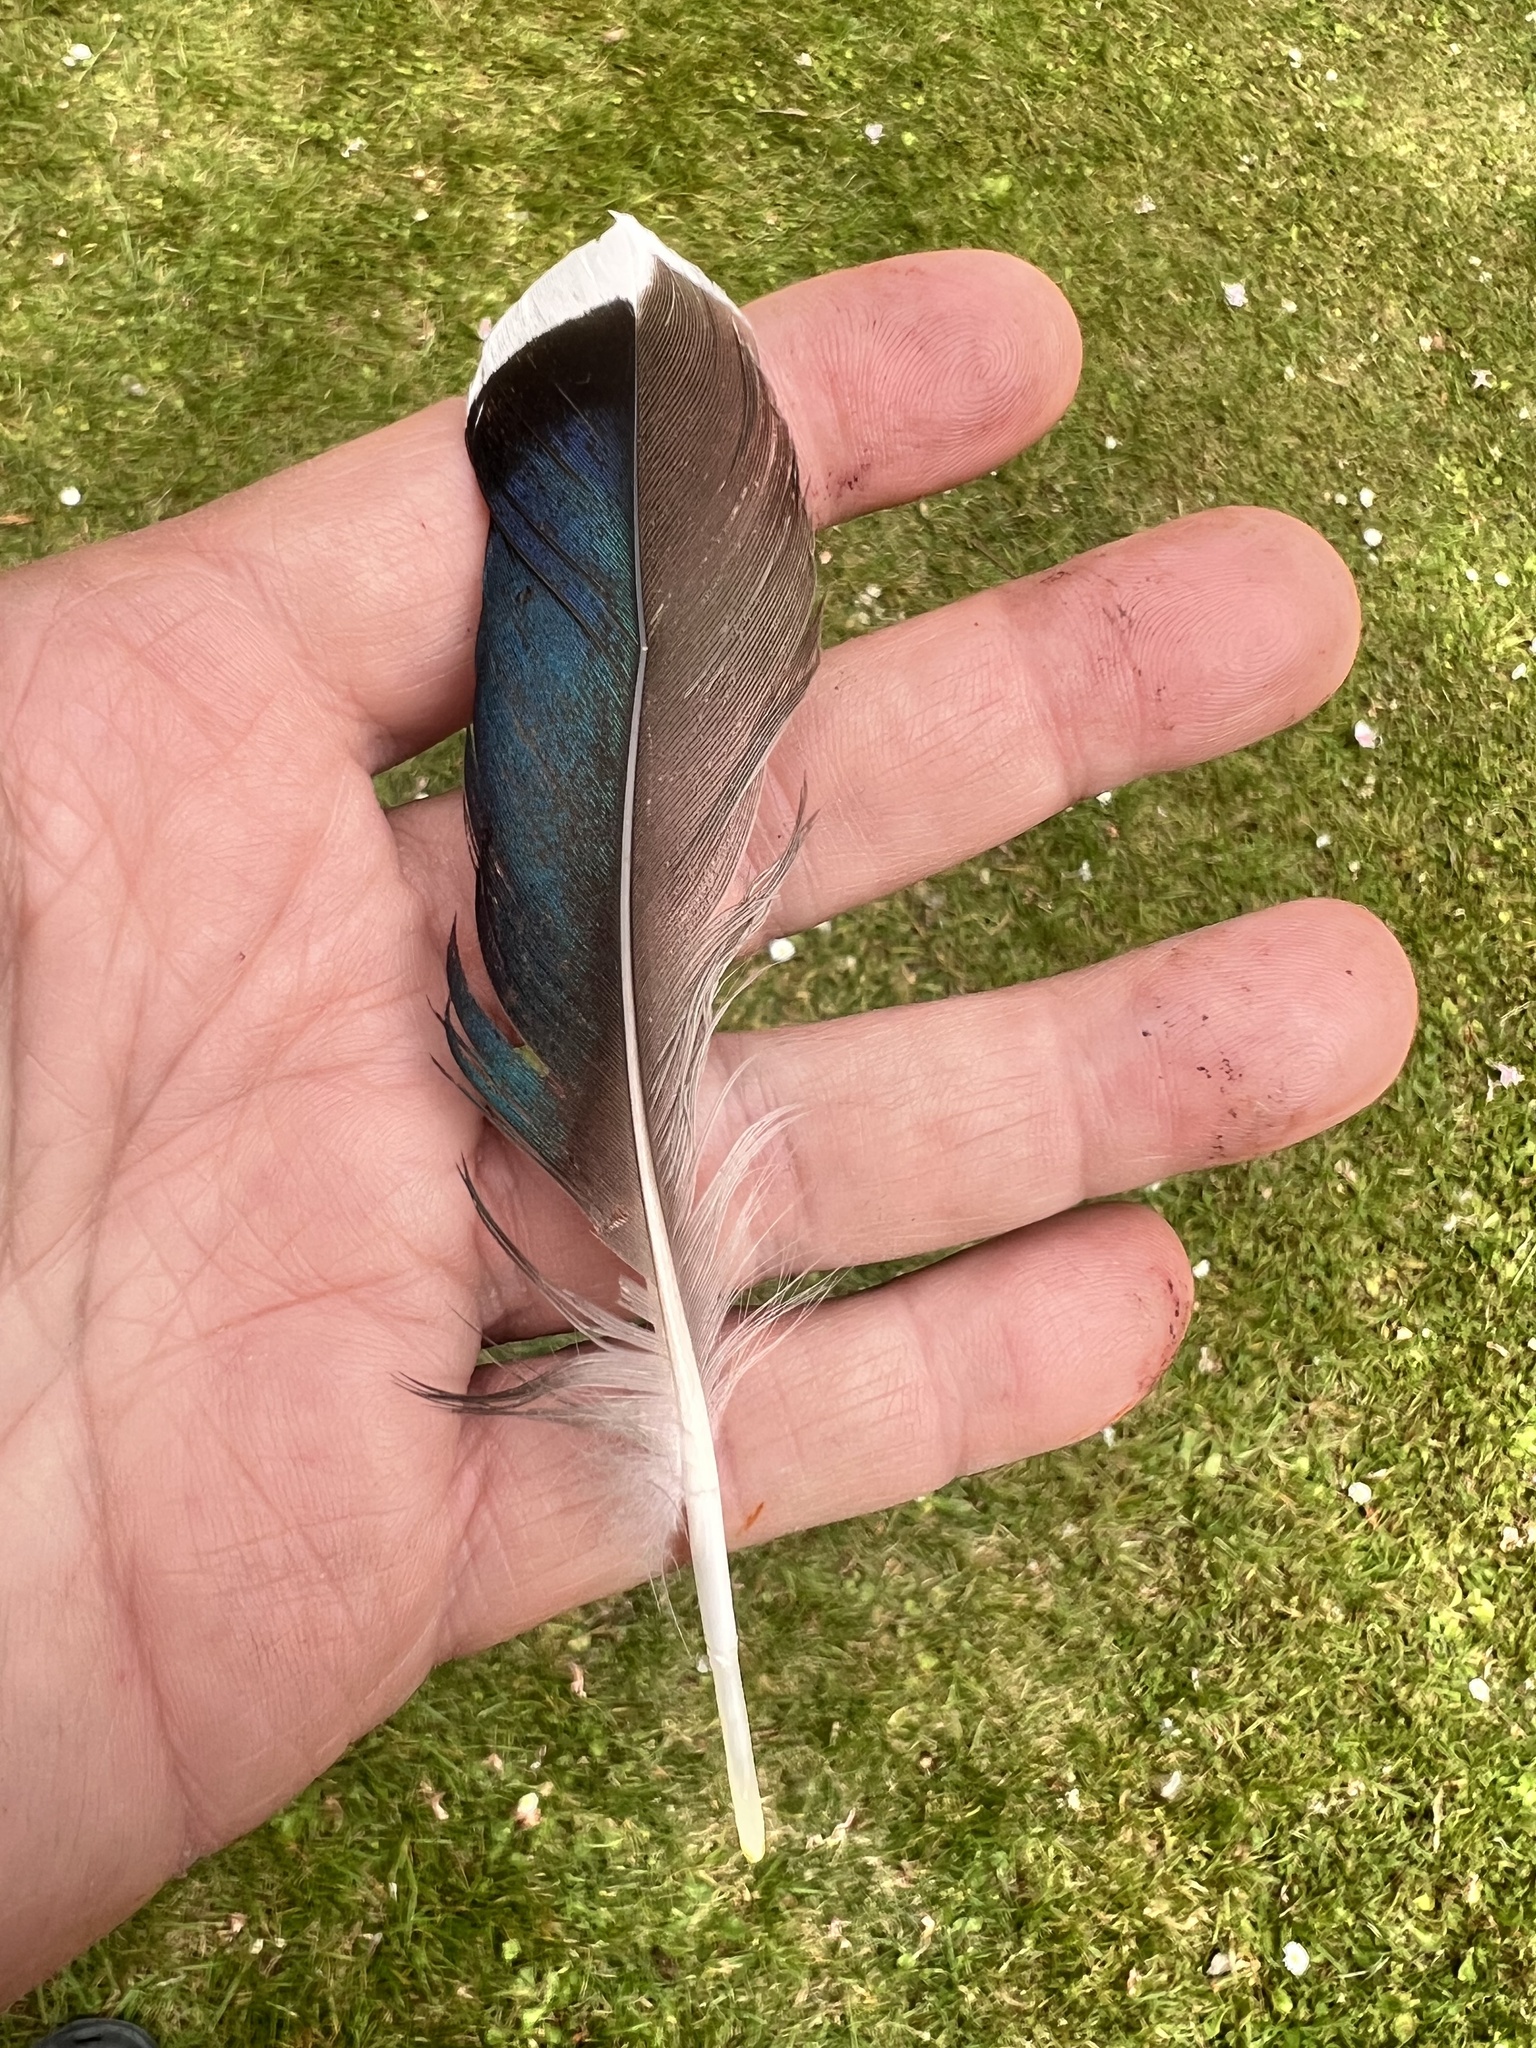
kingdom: Animalia
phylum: Chordata
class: Aves
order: Anseriformes
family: Anatidae
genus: Anas
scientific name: Anas platyrhynchos
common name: Mallard
